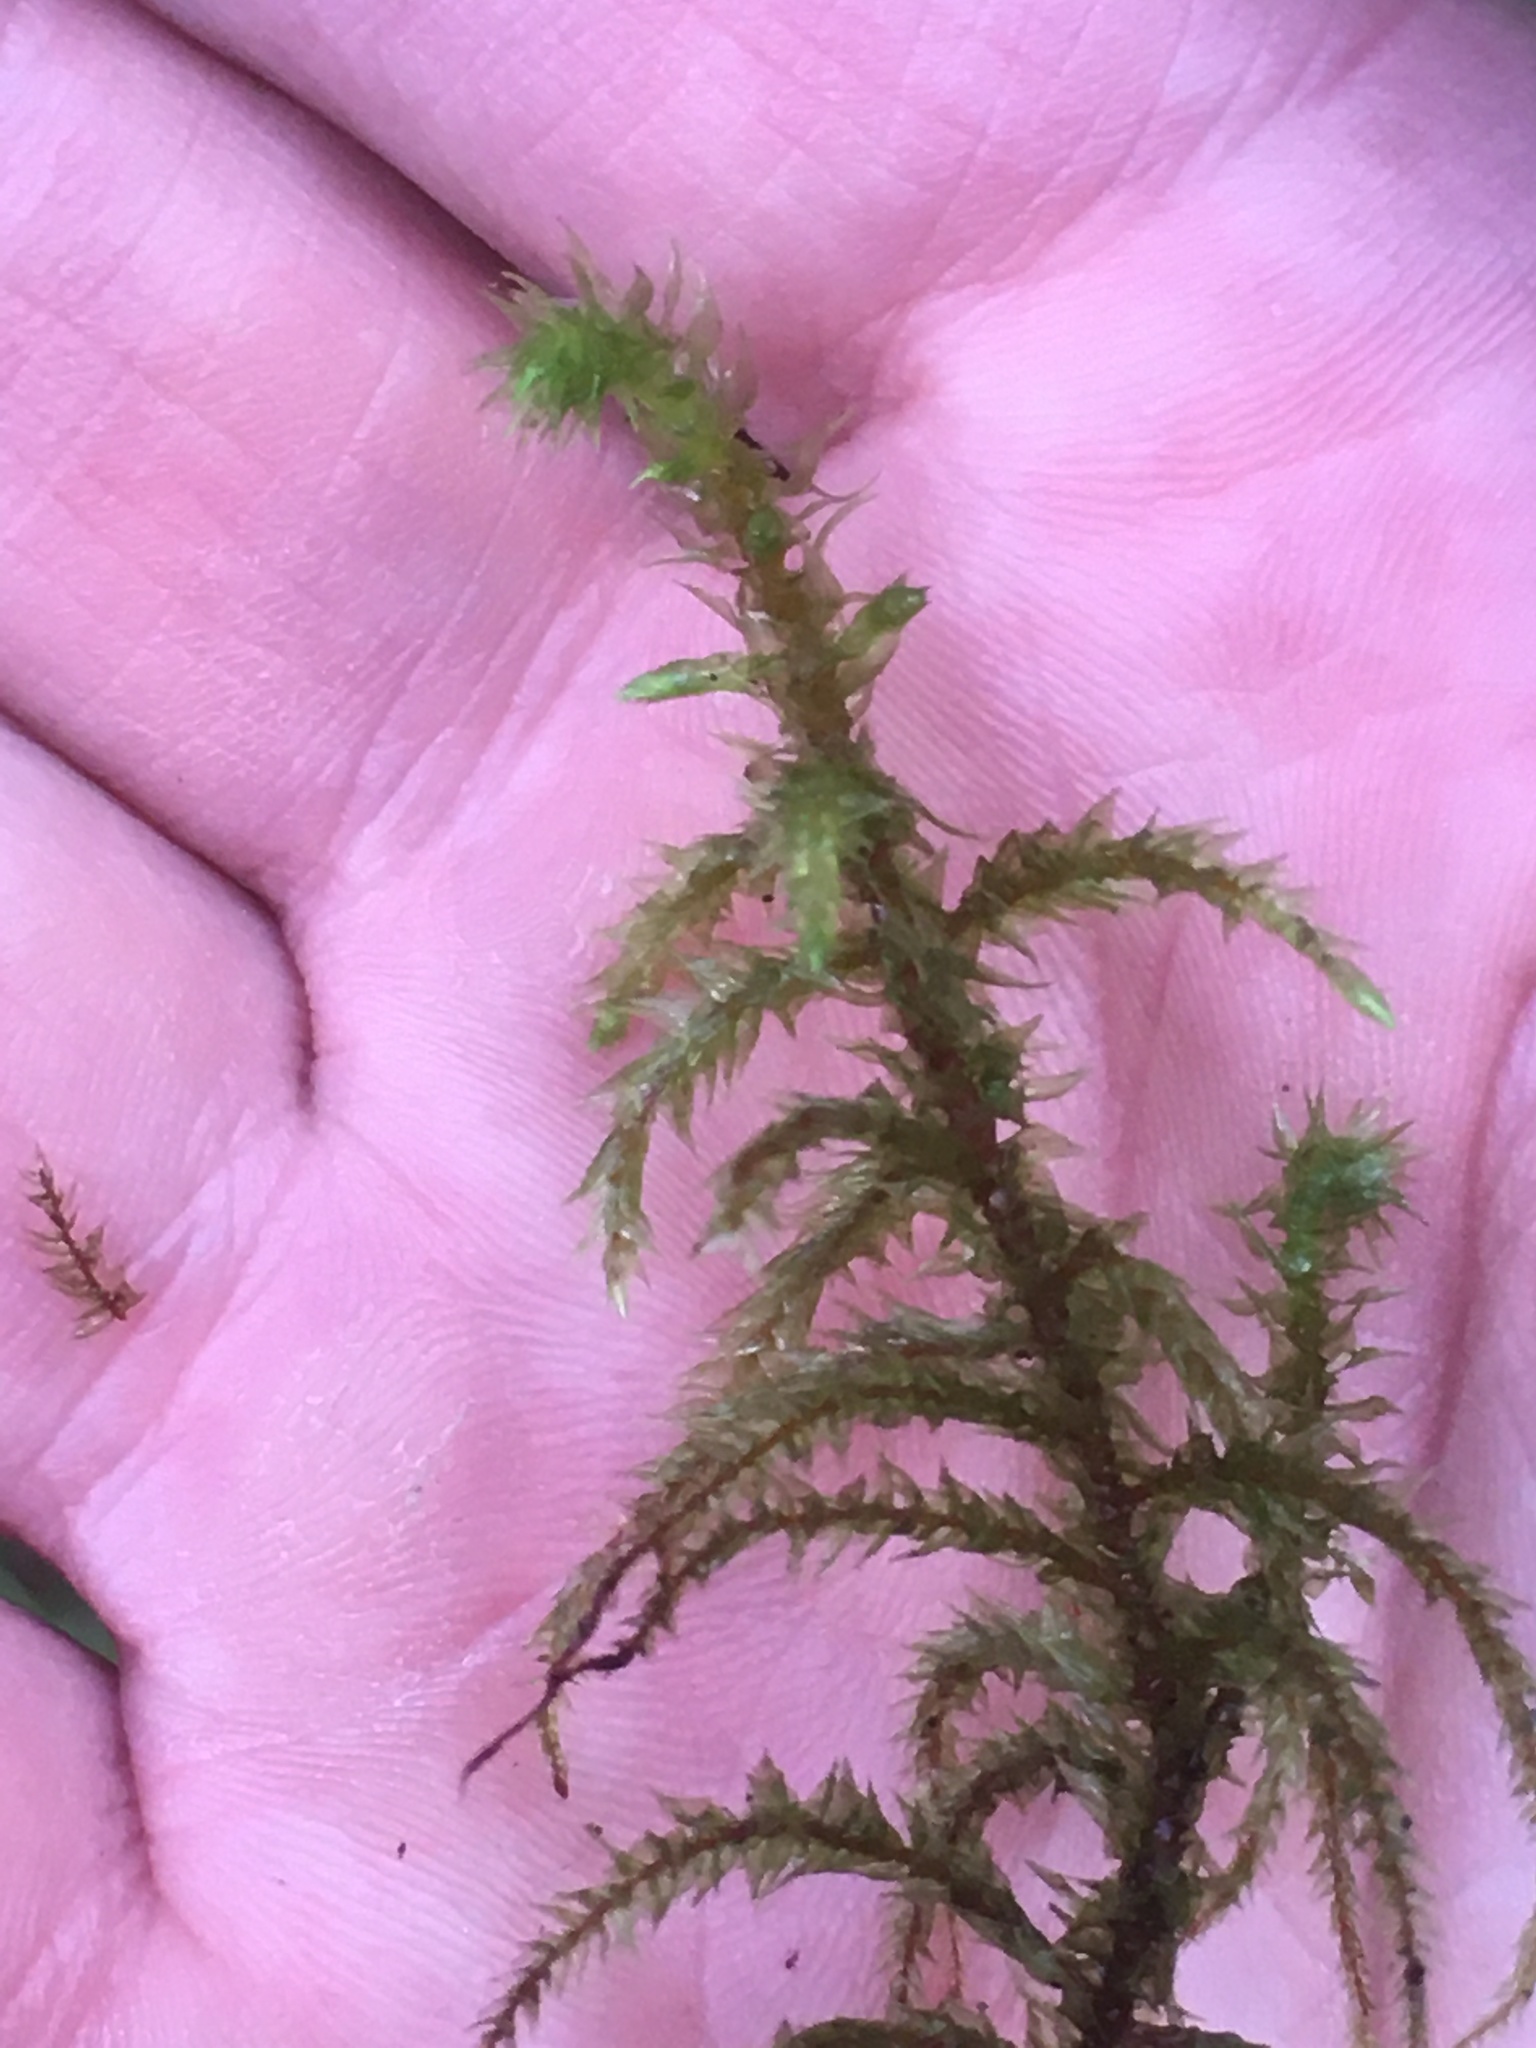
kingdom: Plantae
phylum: Bryophyta
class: Bryopsida
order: Hypnales
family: Hylocomiaceae
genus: Hylocomiadelphus
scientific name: Hylocomiadelphus triquetrus
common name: Rough goose neck moss
